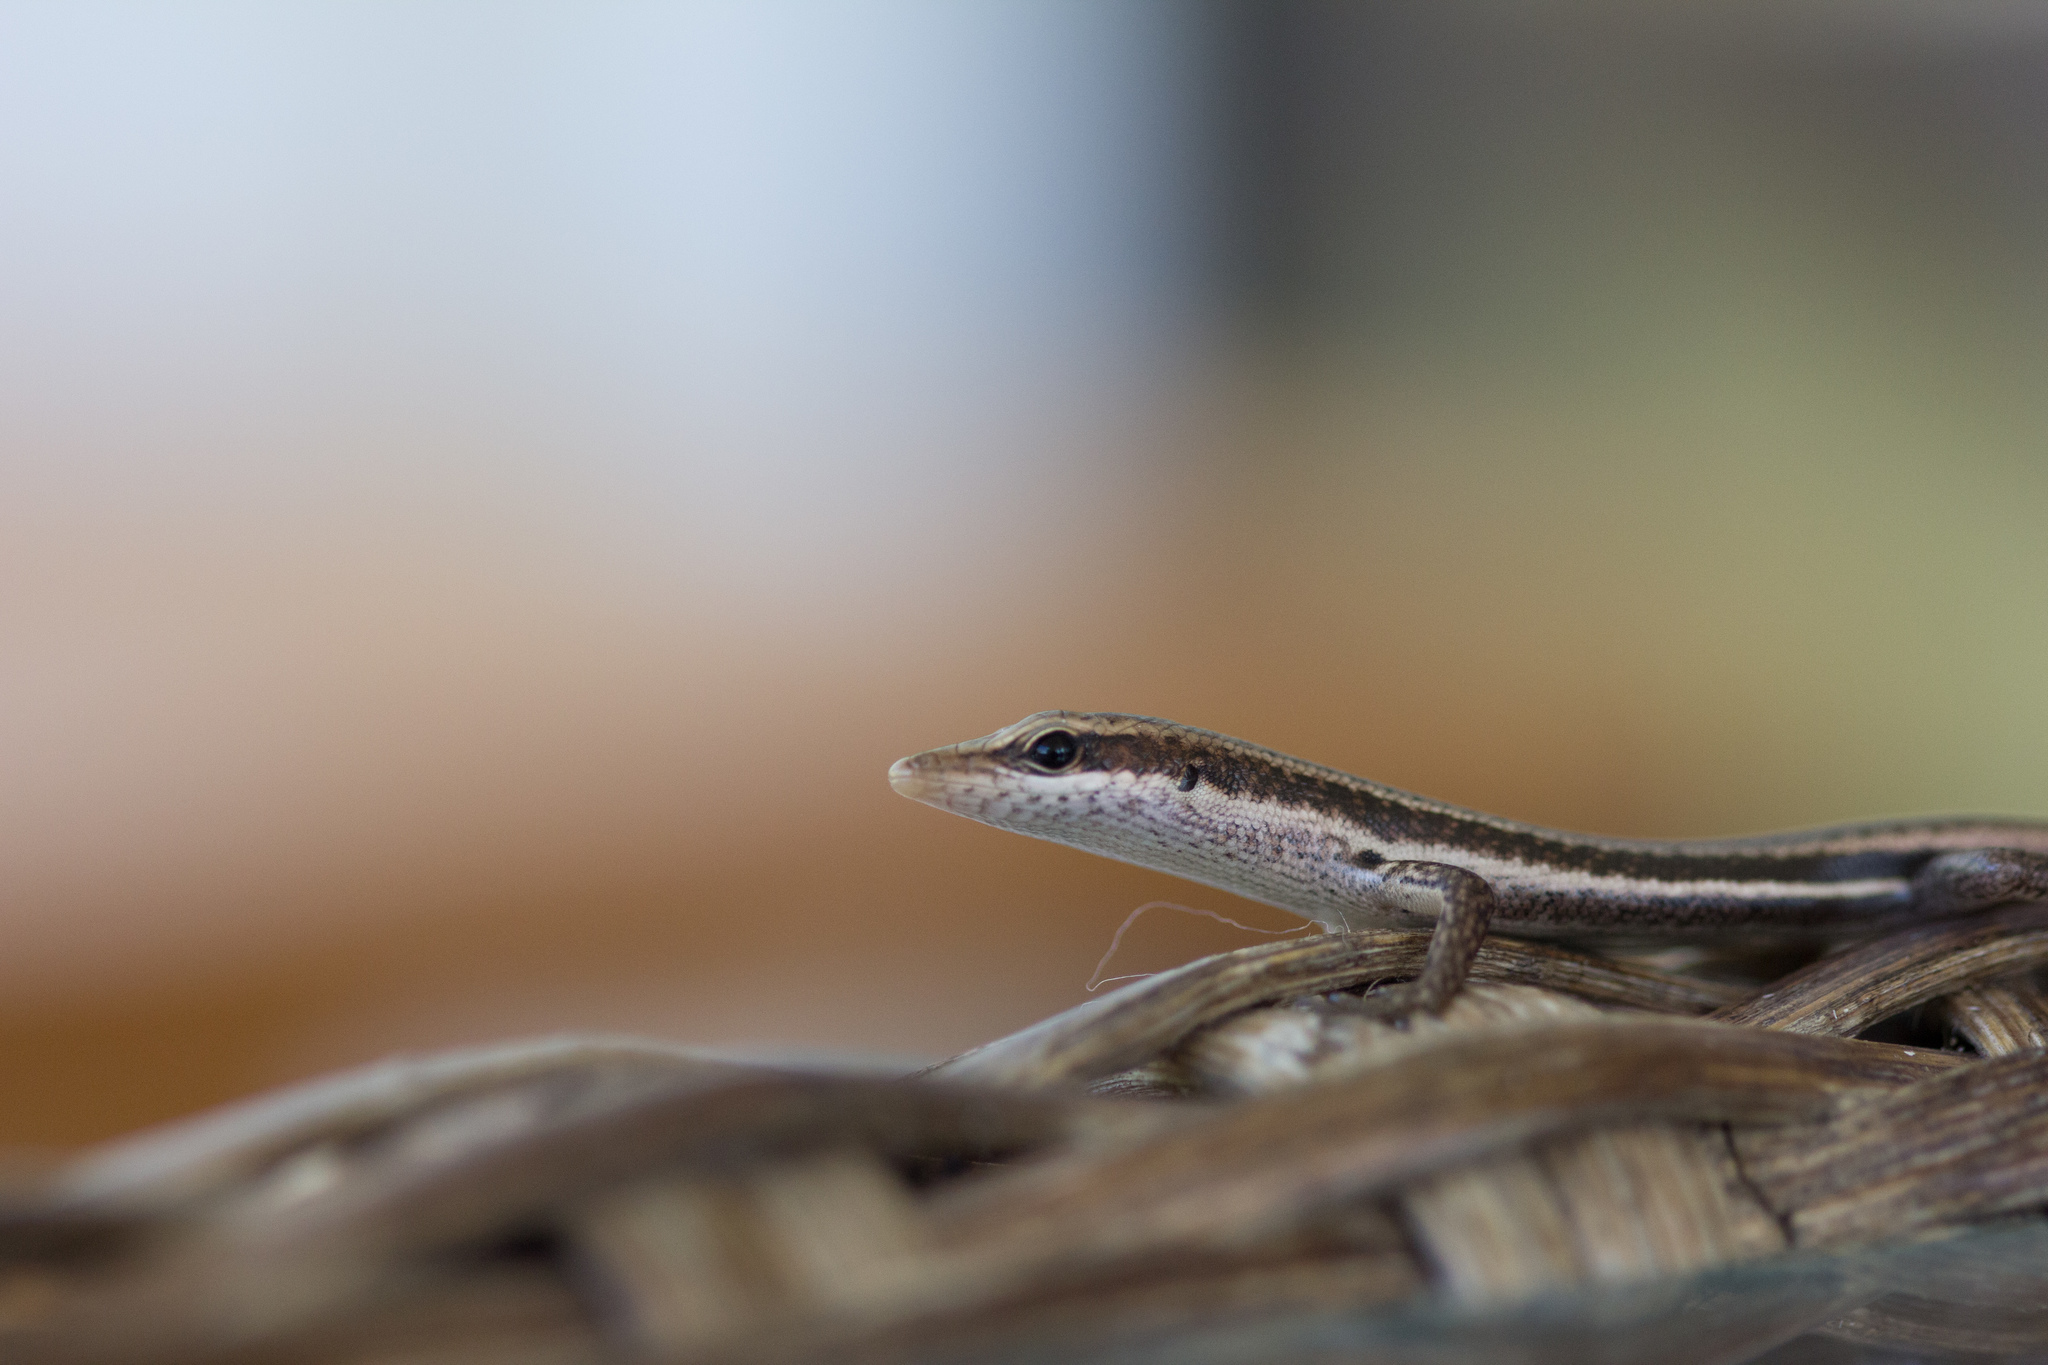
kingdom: Animalia
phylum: Chordata
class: Squamata
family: Scincidae
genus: Trachylepis
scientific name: Trachylepis sechellensis
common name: Seychelles skink
